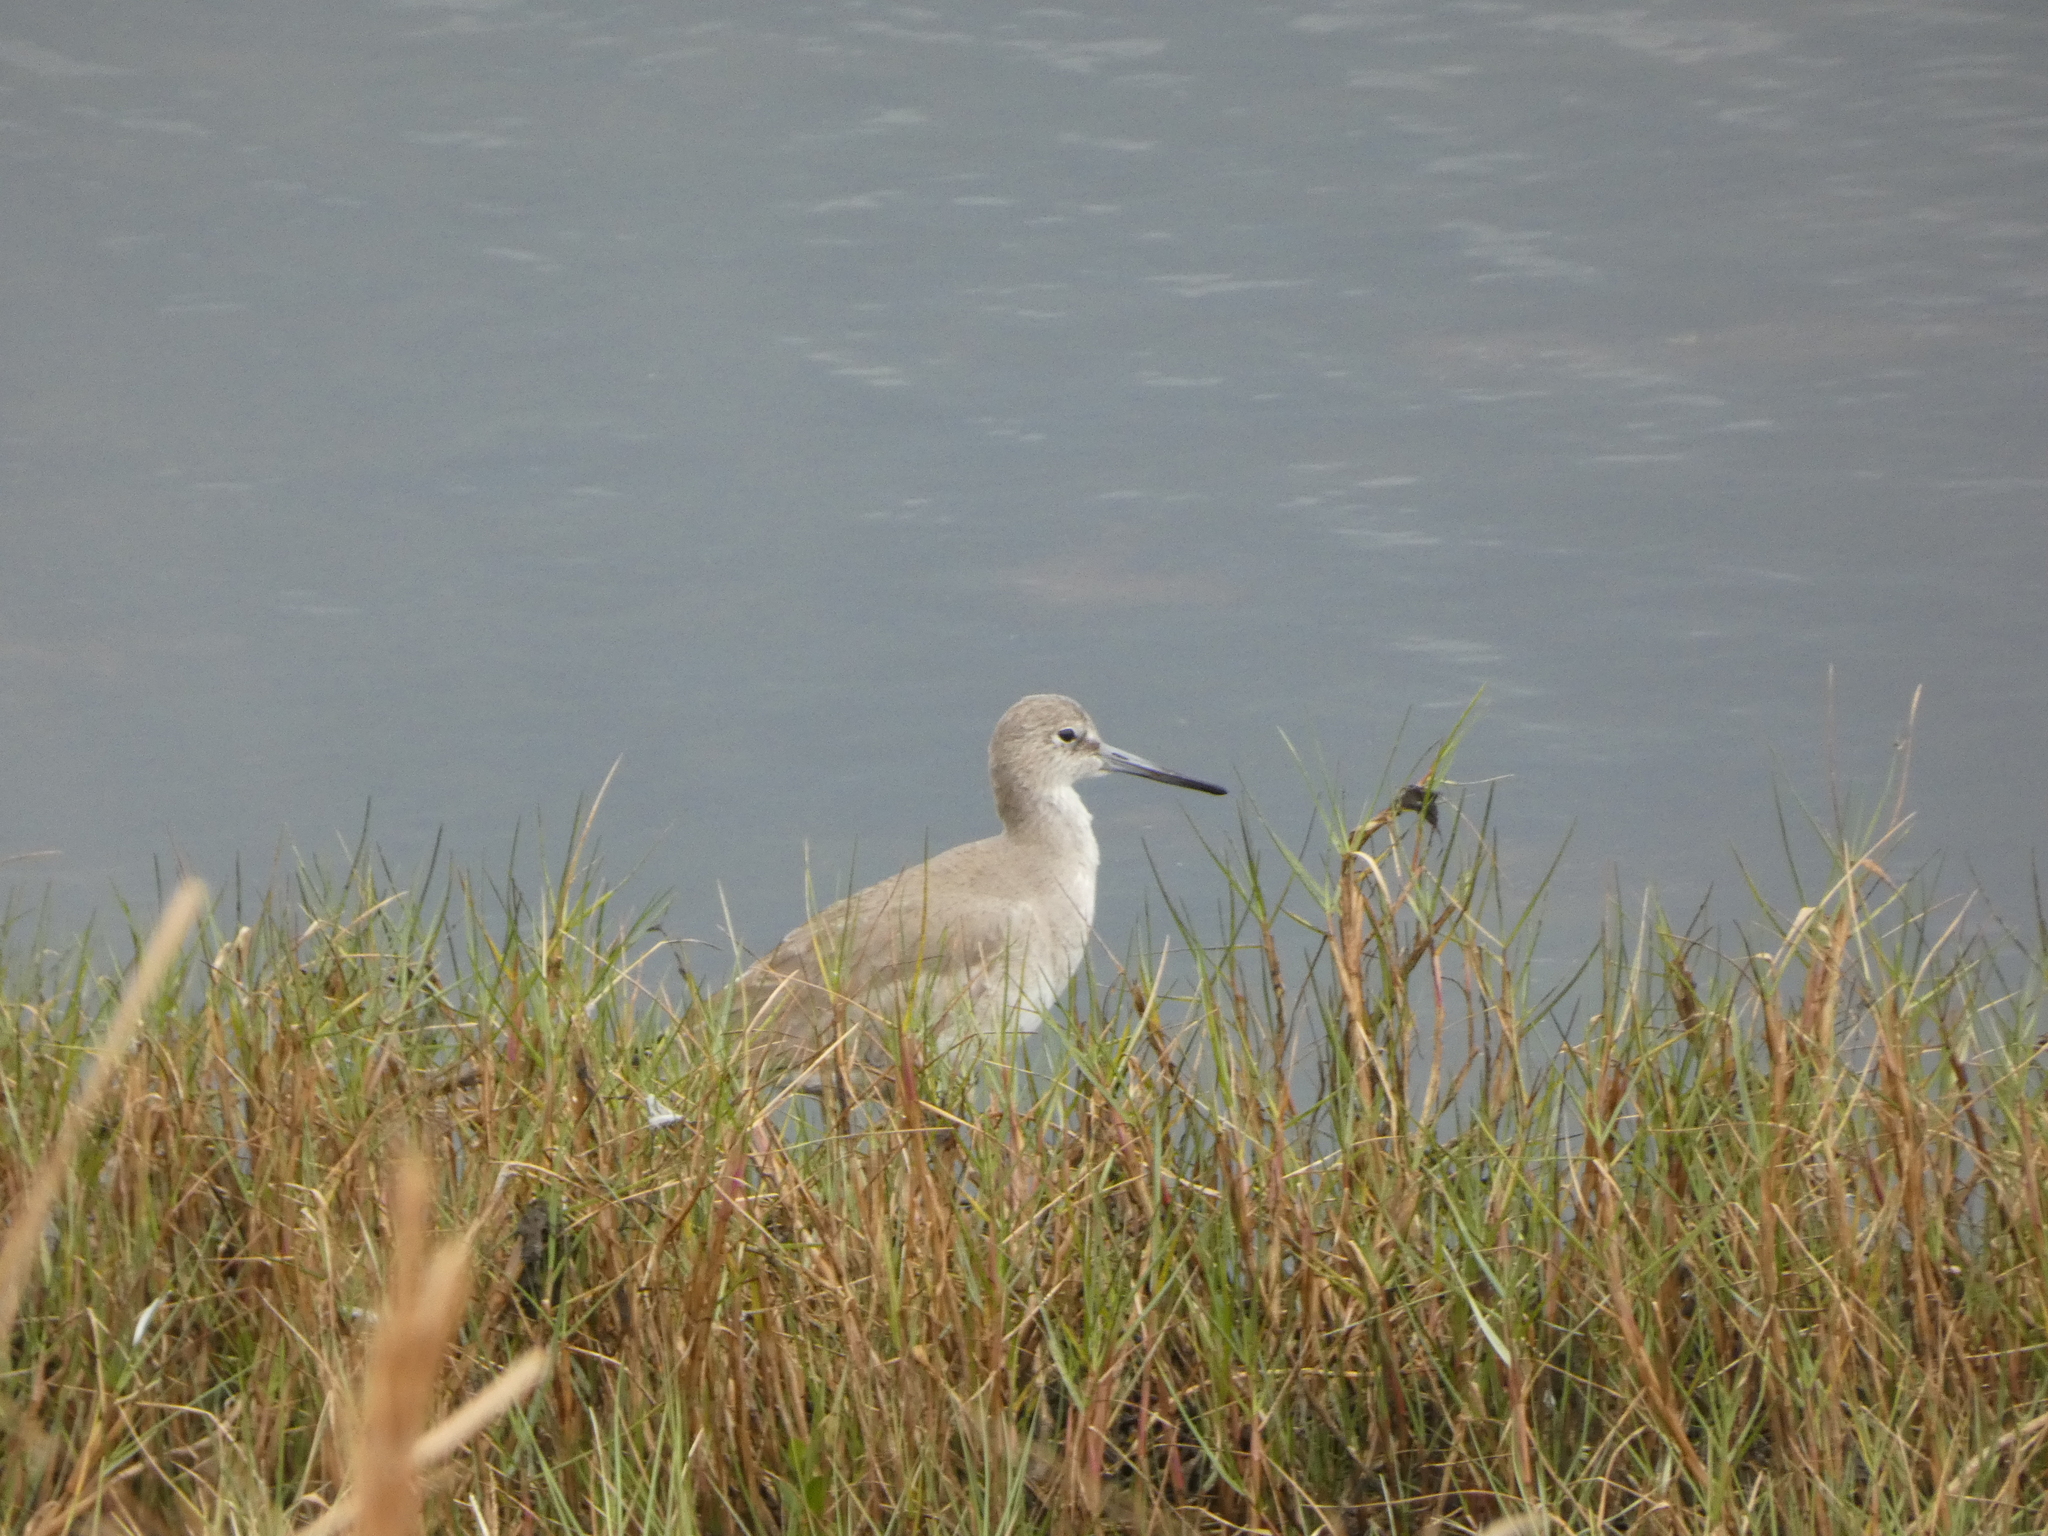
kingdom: Animalia
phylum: Chordata
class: Aves
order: Charadriiformes
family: Scolopacidae
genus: Tringa
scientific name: Tringa semipalmata
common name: Willet
